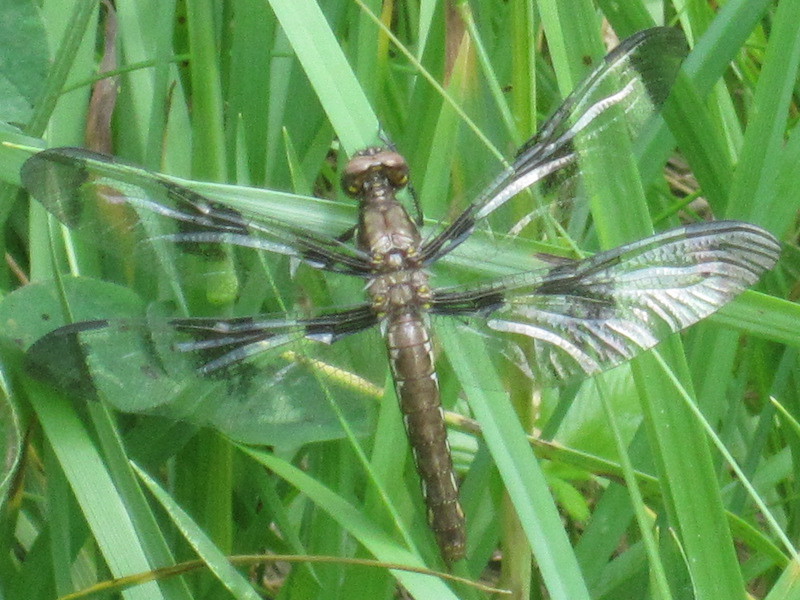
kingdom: Animalia
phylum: Arthropoda
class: Insecta
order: Odonata
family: Libellulidae
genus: Plathemis
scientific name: Plathemis lydia
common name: Common whitetail
